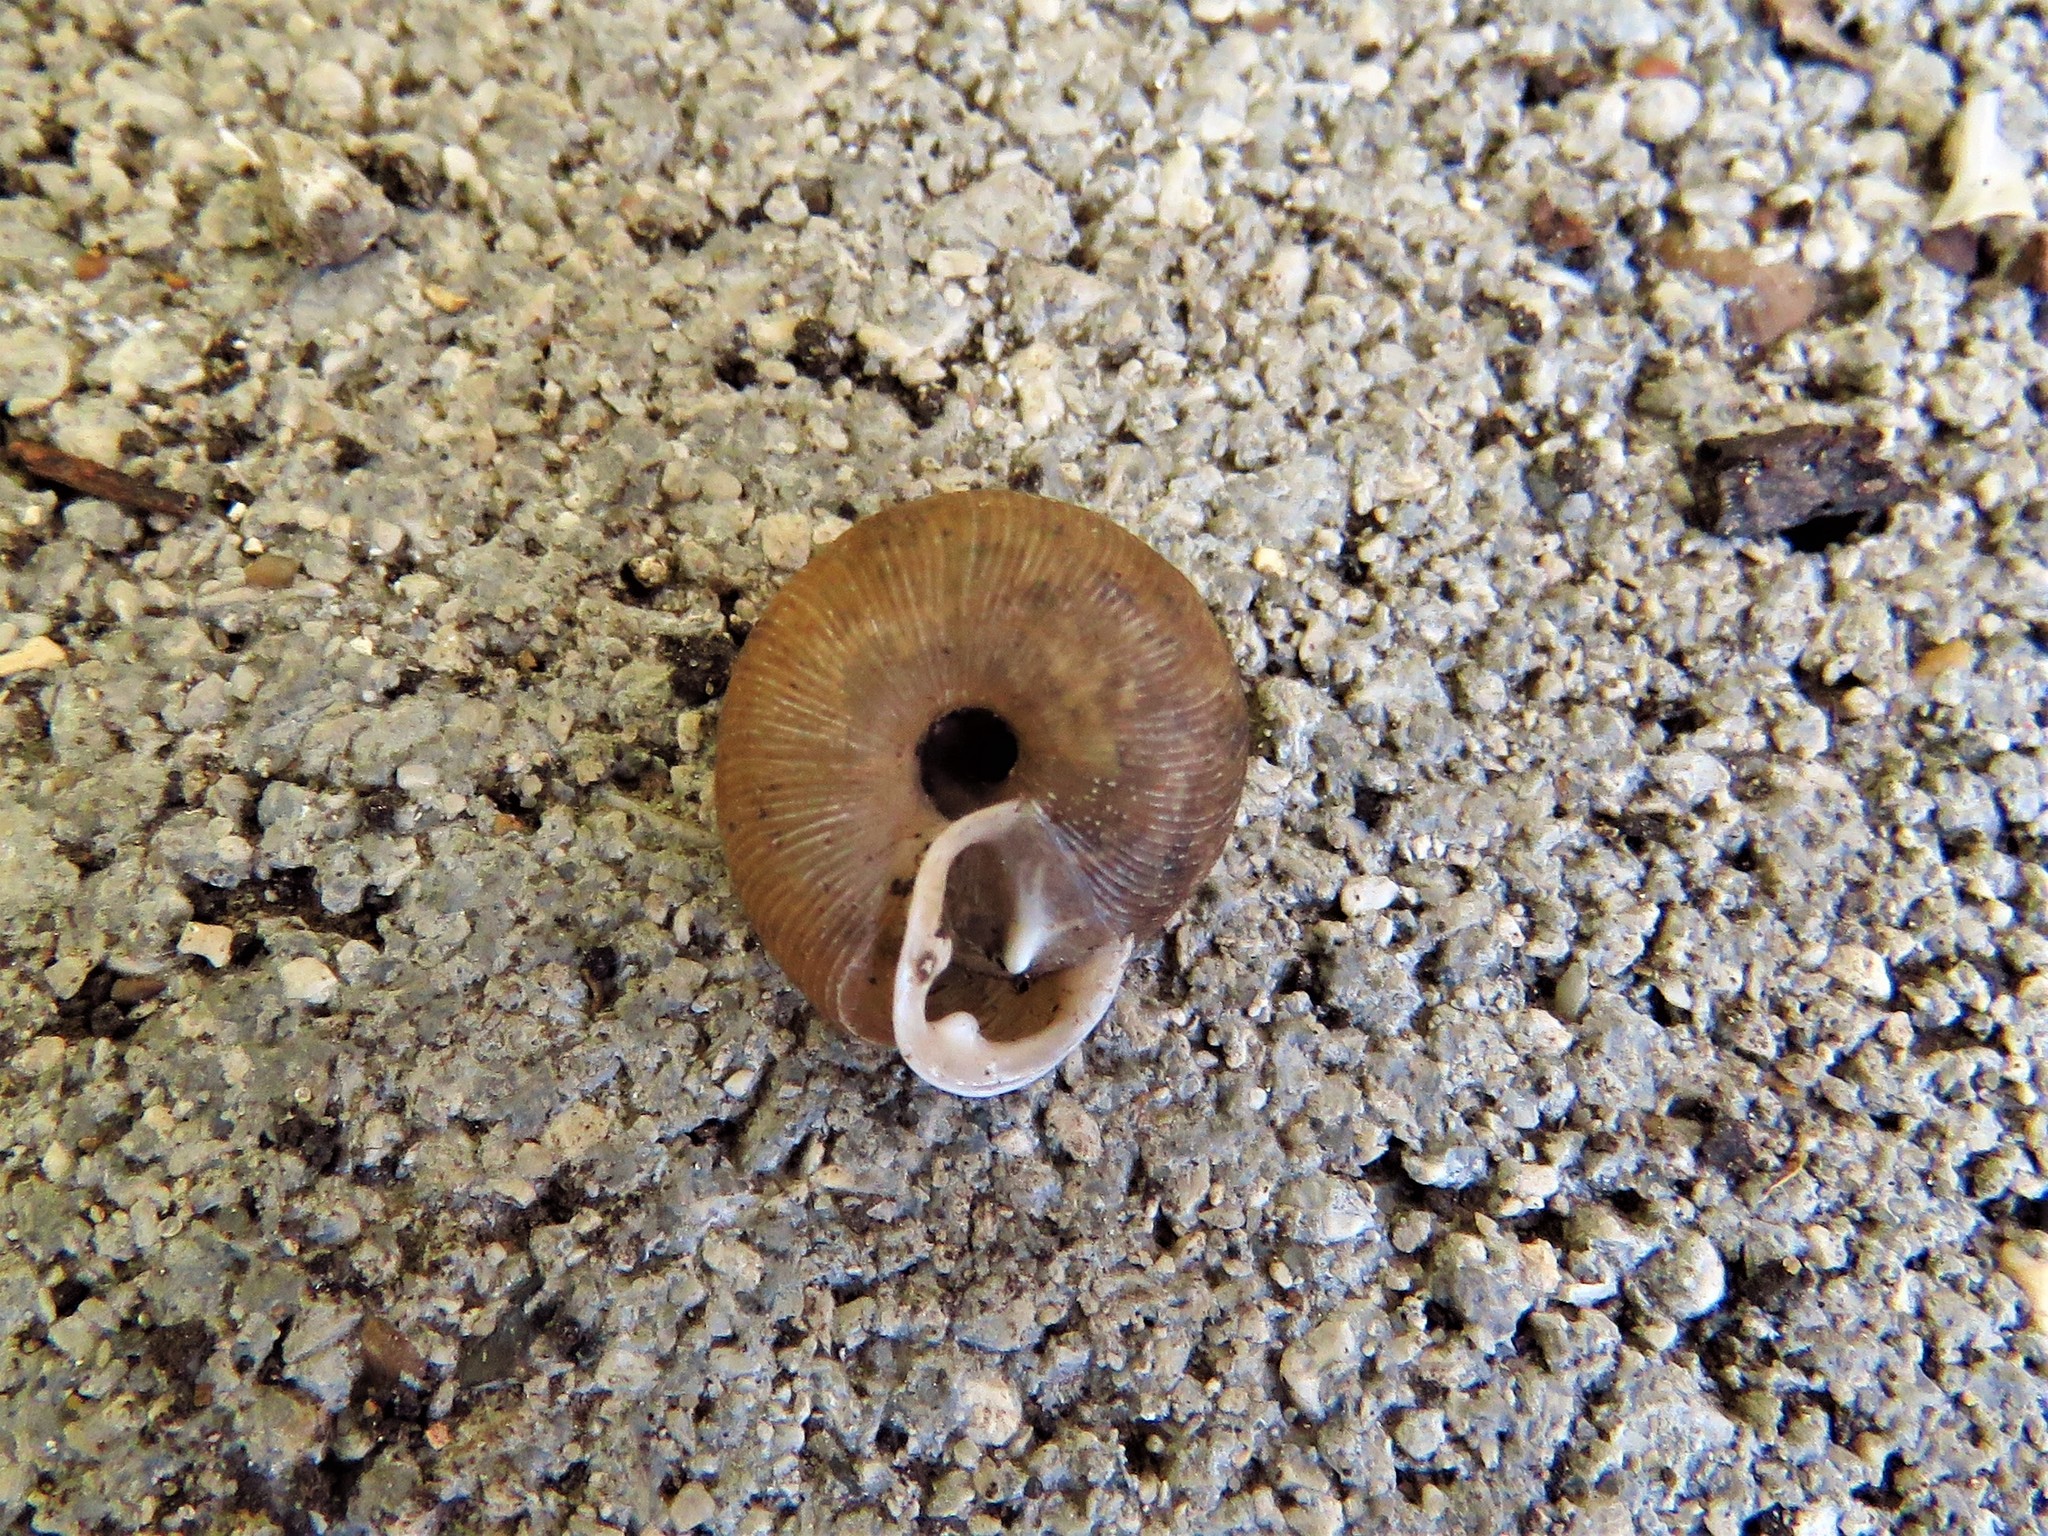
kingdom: Animalia
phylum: Mollusca
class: Gastropoda
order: Stylommatophora
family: Polygyridae
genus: Triodopsis
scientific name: Triodopsis hopetonensis
